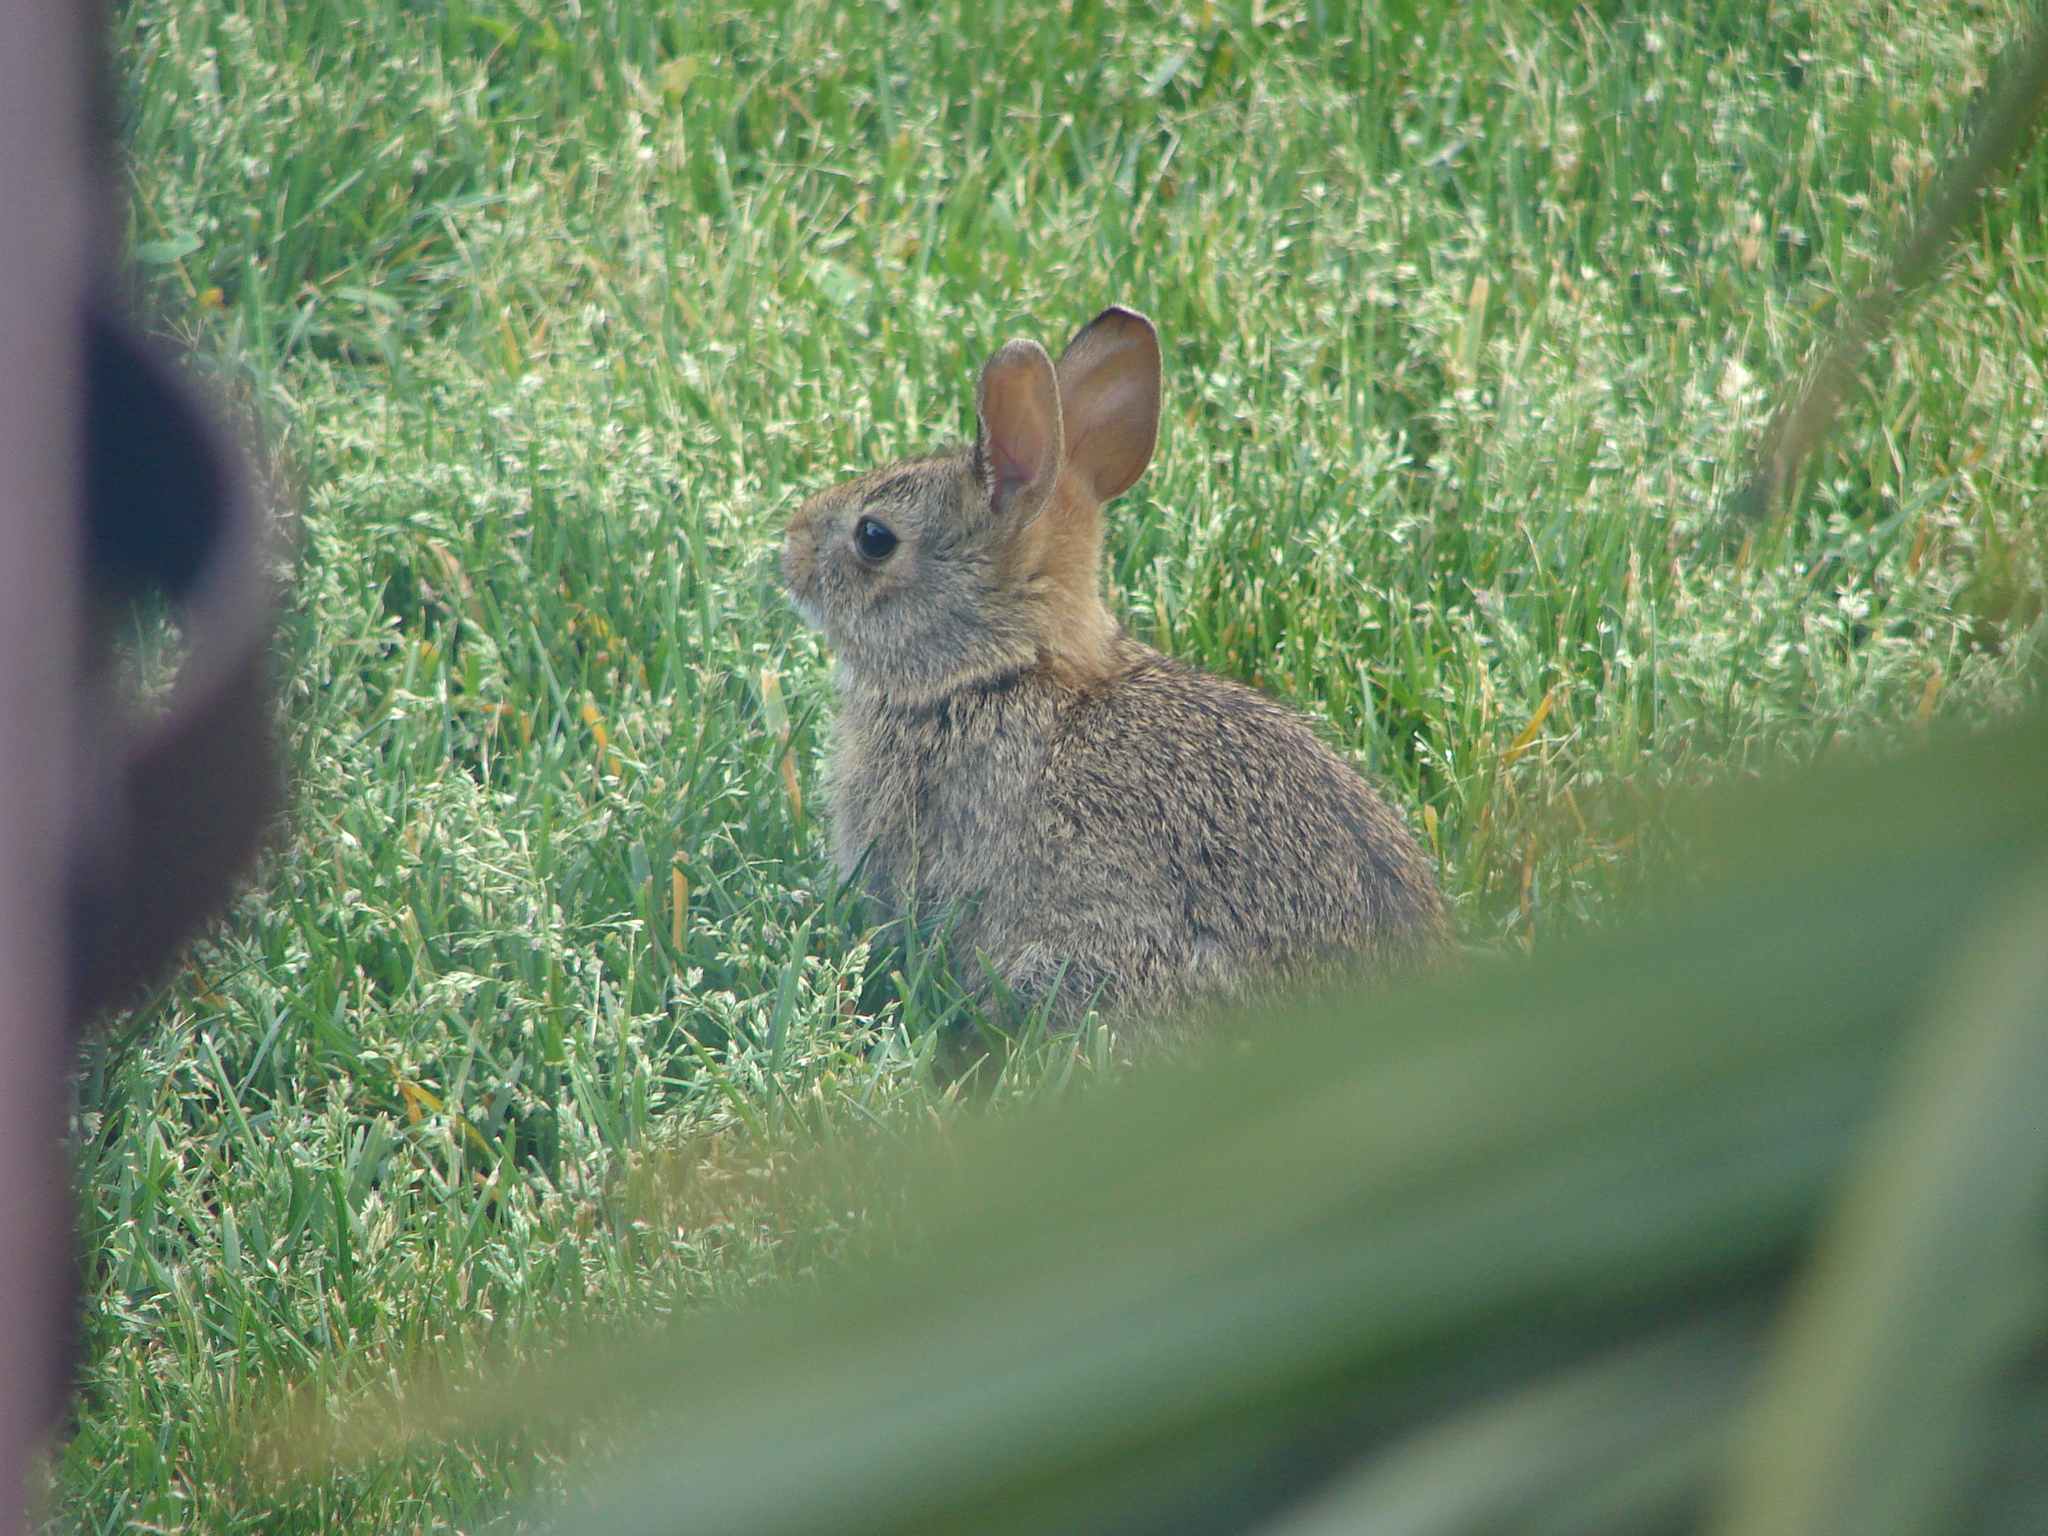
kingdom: Animalia
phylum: Chordata
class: Mammalia
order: Lagomorpha
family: Leporidae
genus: Sylvilagus
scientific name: Sylvilagus floridanus
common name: Eastern cottontail
